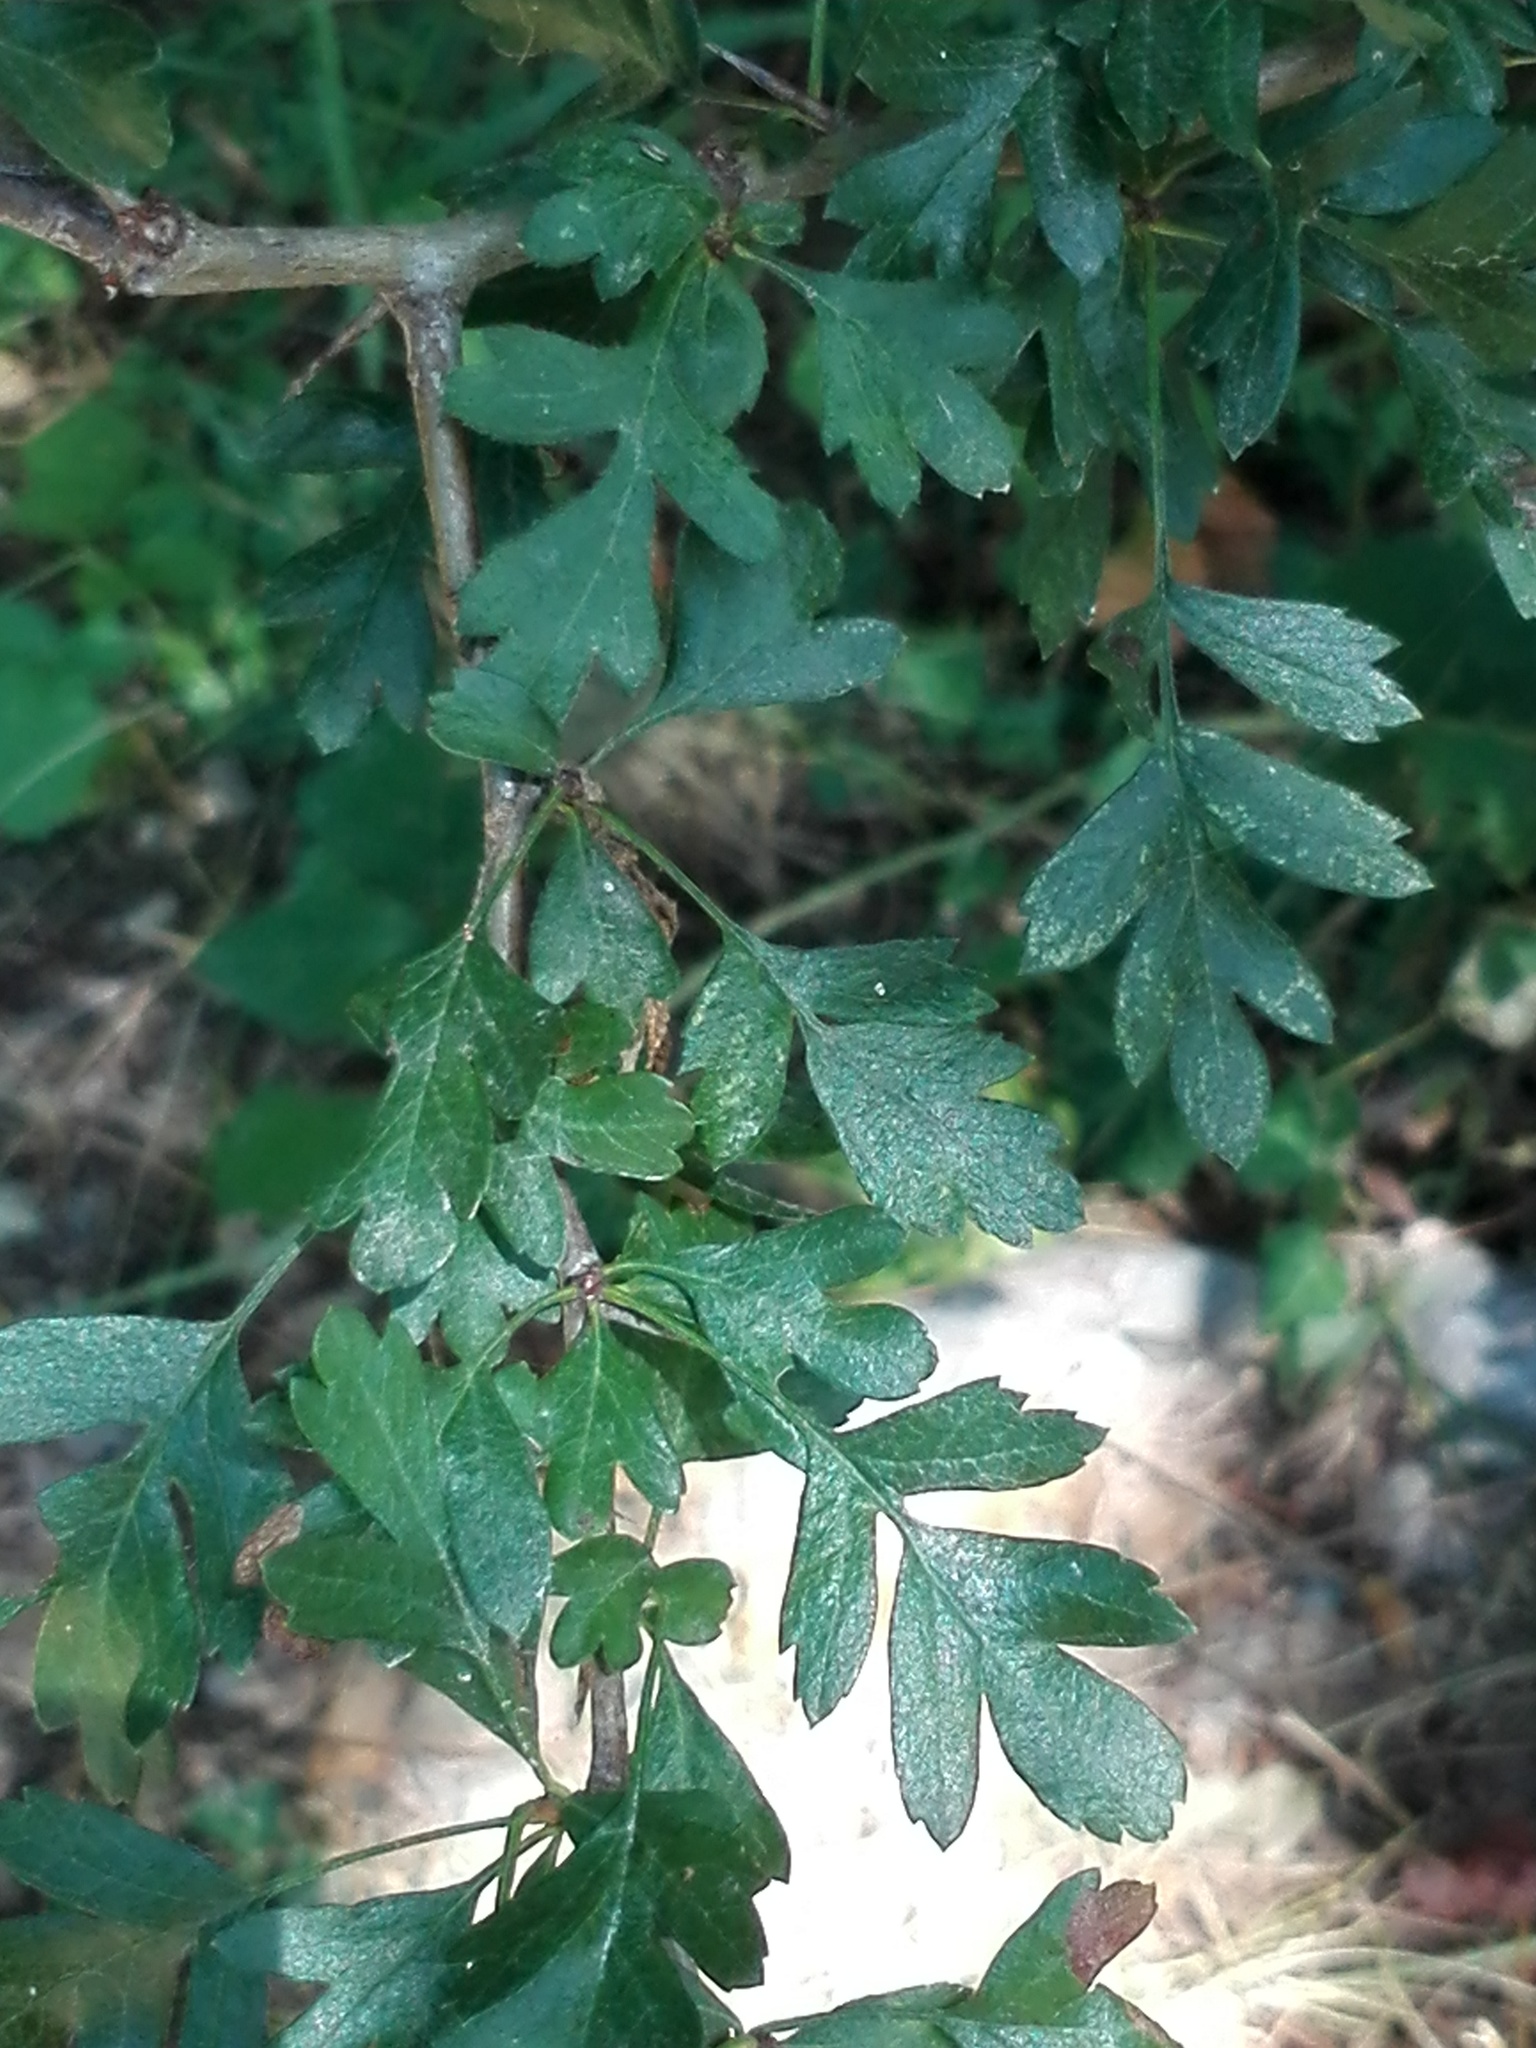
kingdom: Plantae
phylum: Tracheophyta
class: Magnoliopsida
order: Rosales
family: Rosaceae
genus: Crataegus
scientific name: Crataegus monogyna
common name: Hawthorn
